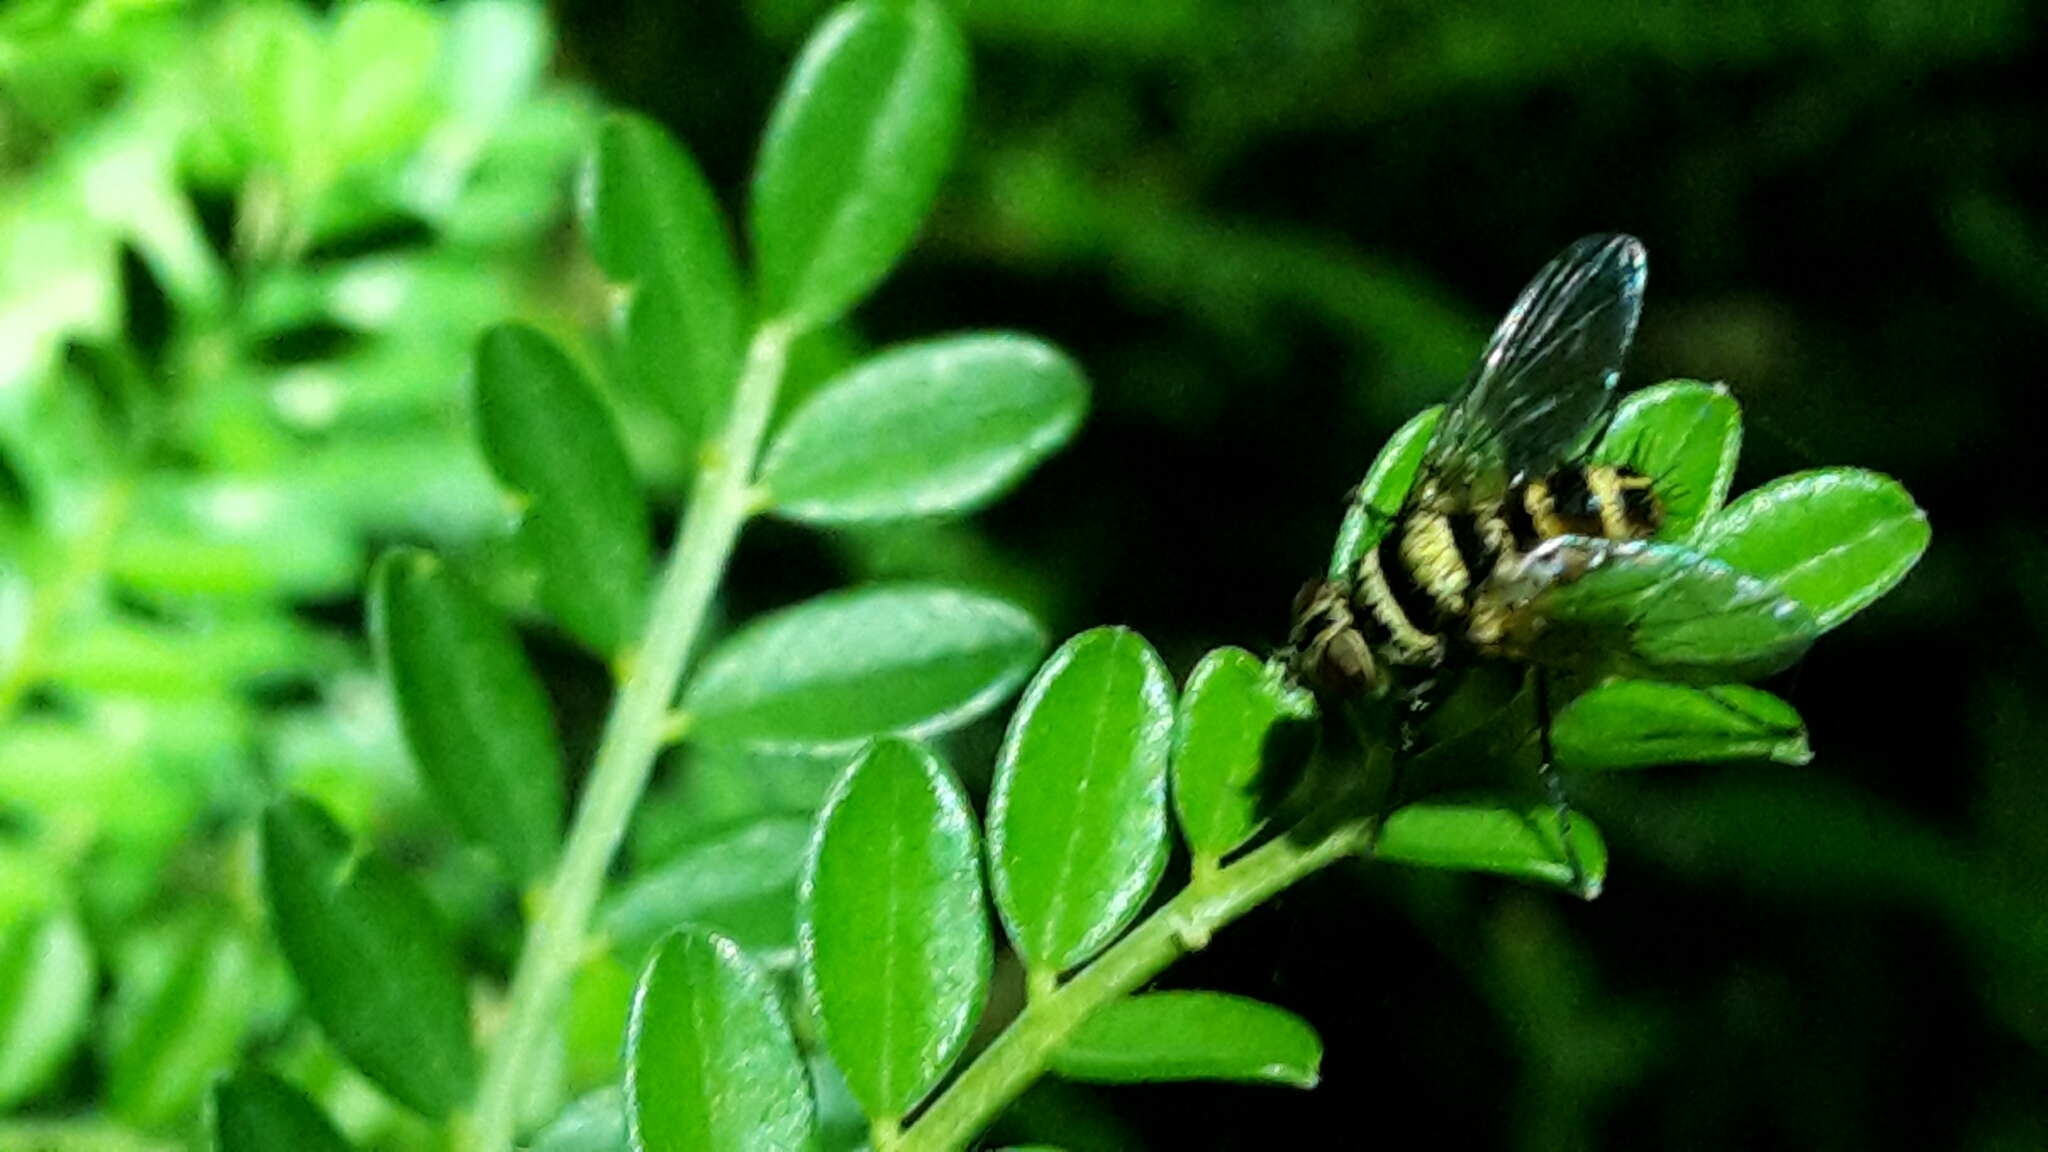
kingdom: Animalia
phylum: Arthropoda
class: Insecta
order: Diptera
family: Tachinidae
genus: Trigonospila
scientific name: Trigonospila brevifacies
